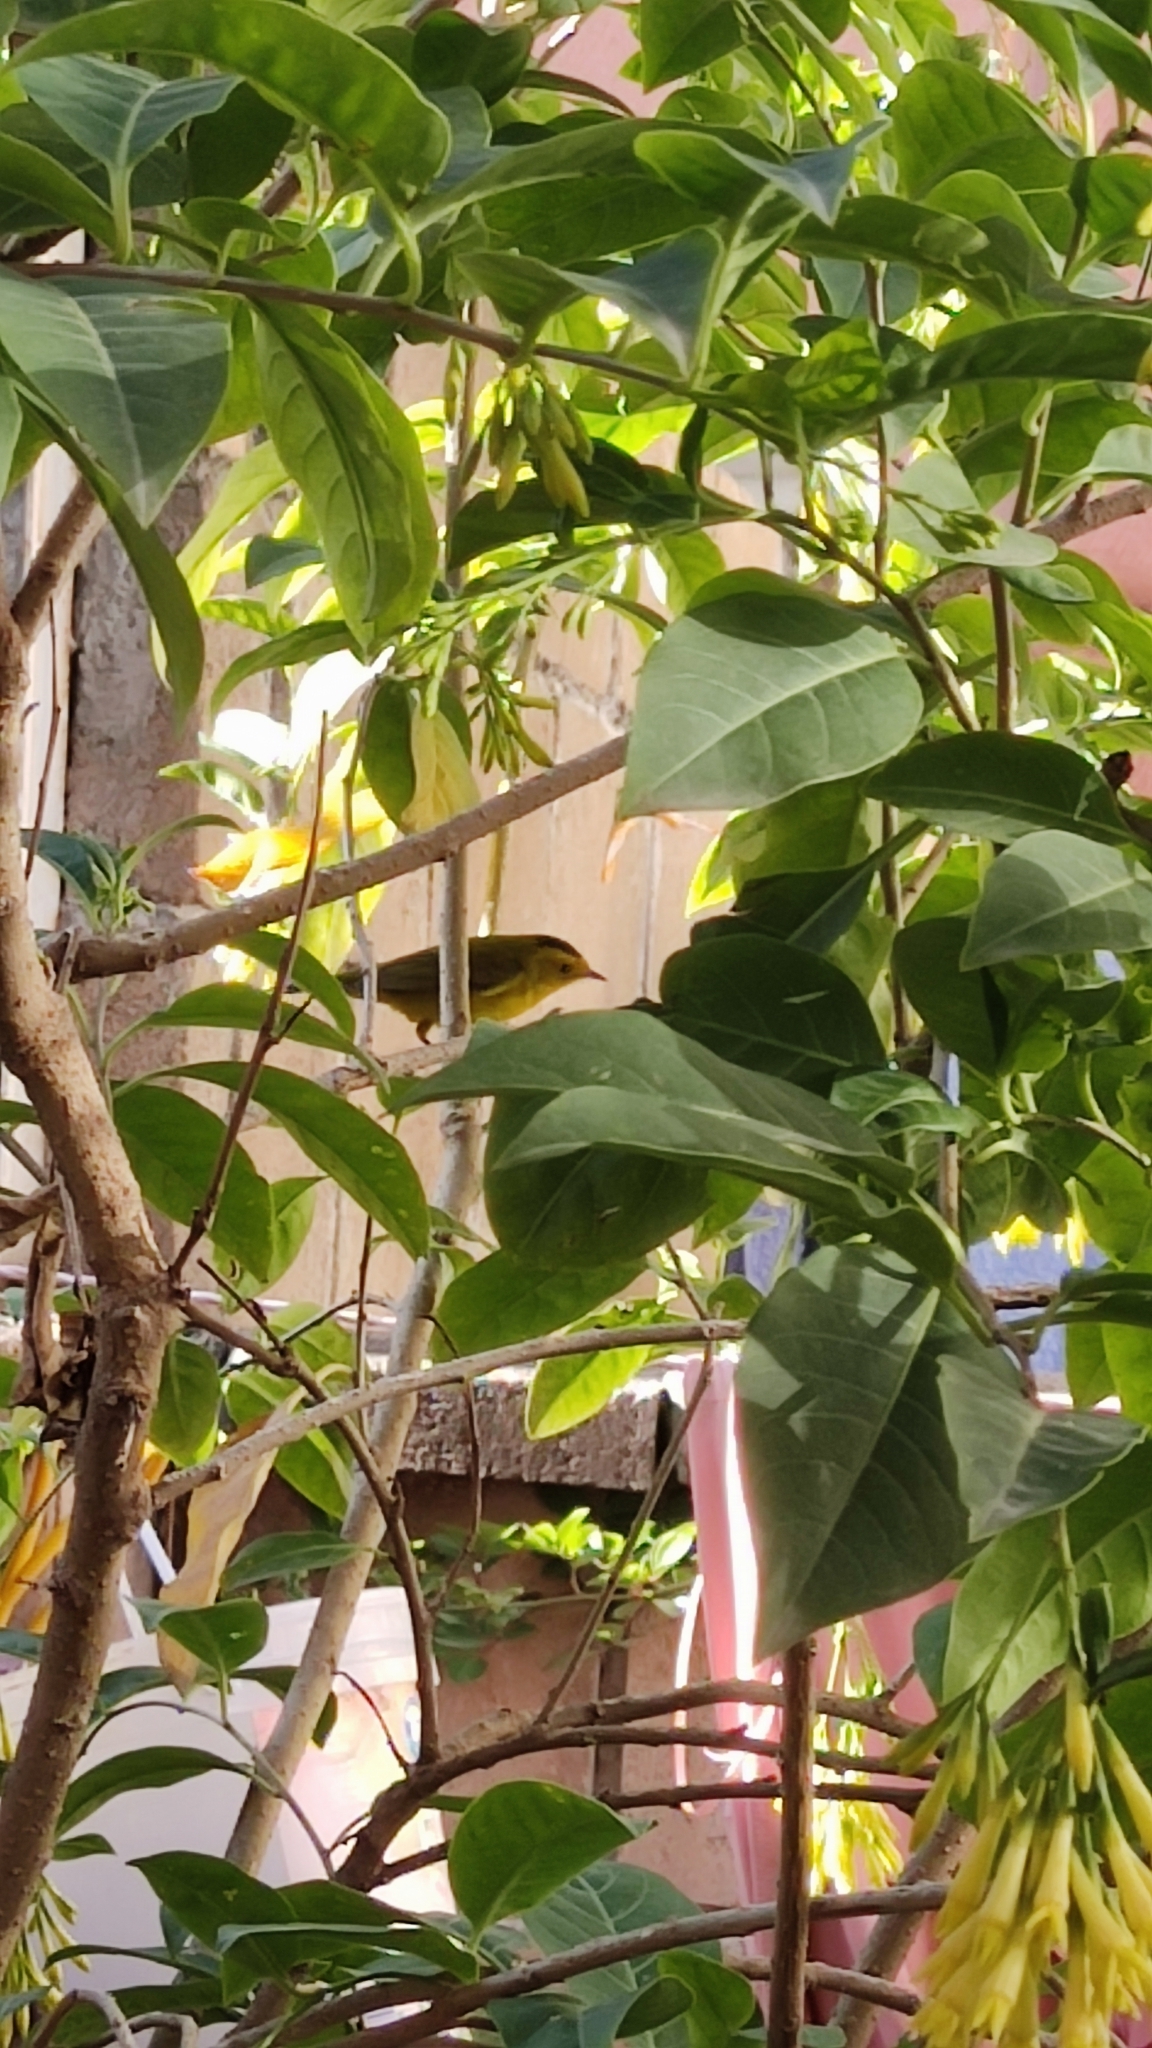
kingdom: Animalia
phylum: Chordata
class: Aves
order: Passeriformes
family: Parulidae
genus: Cardellina
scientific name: Cardellina pusilla
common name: Wilson's warbler
